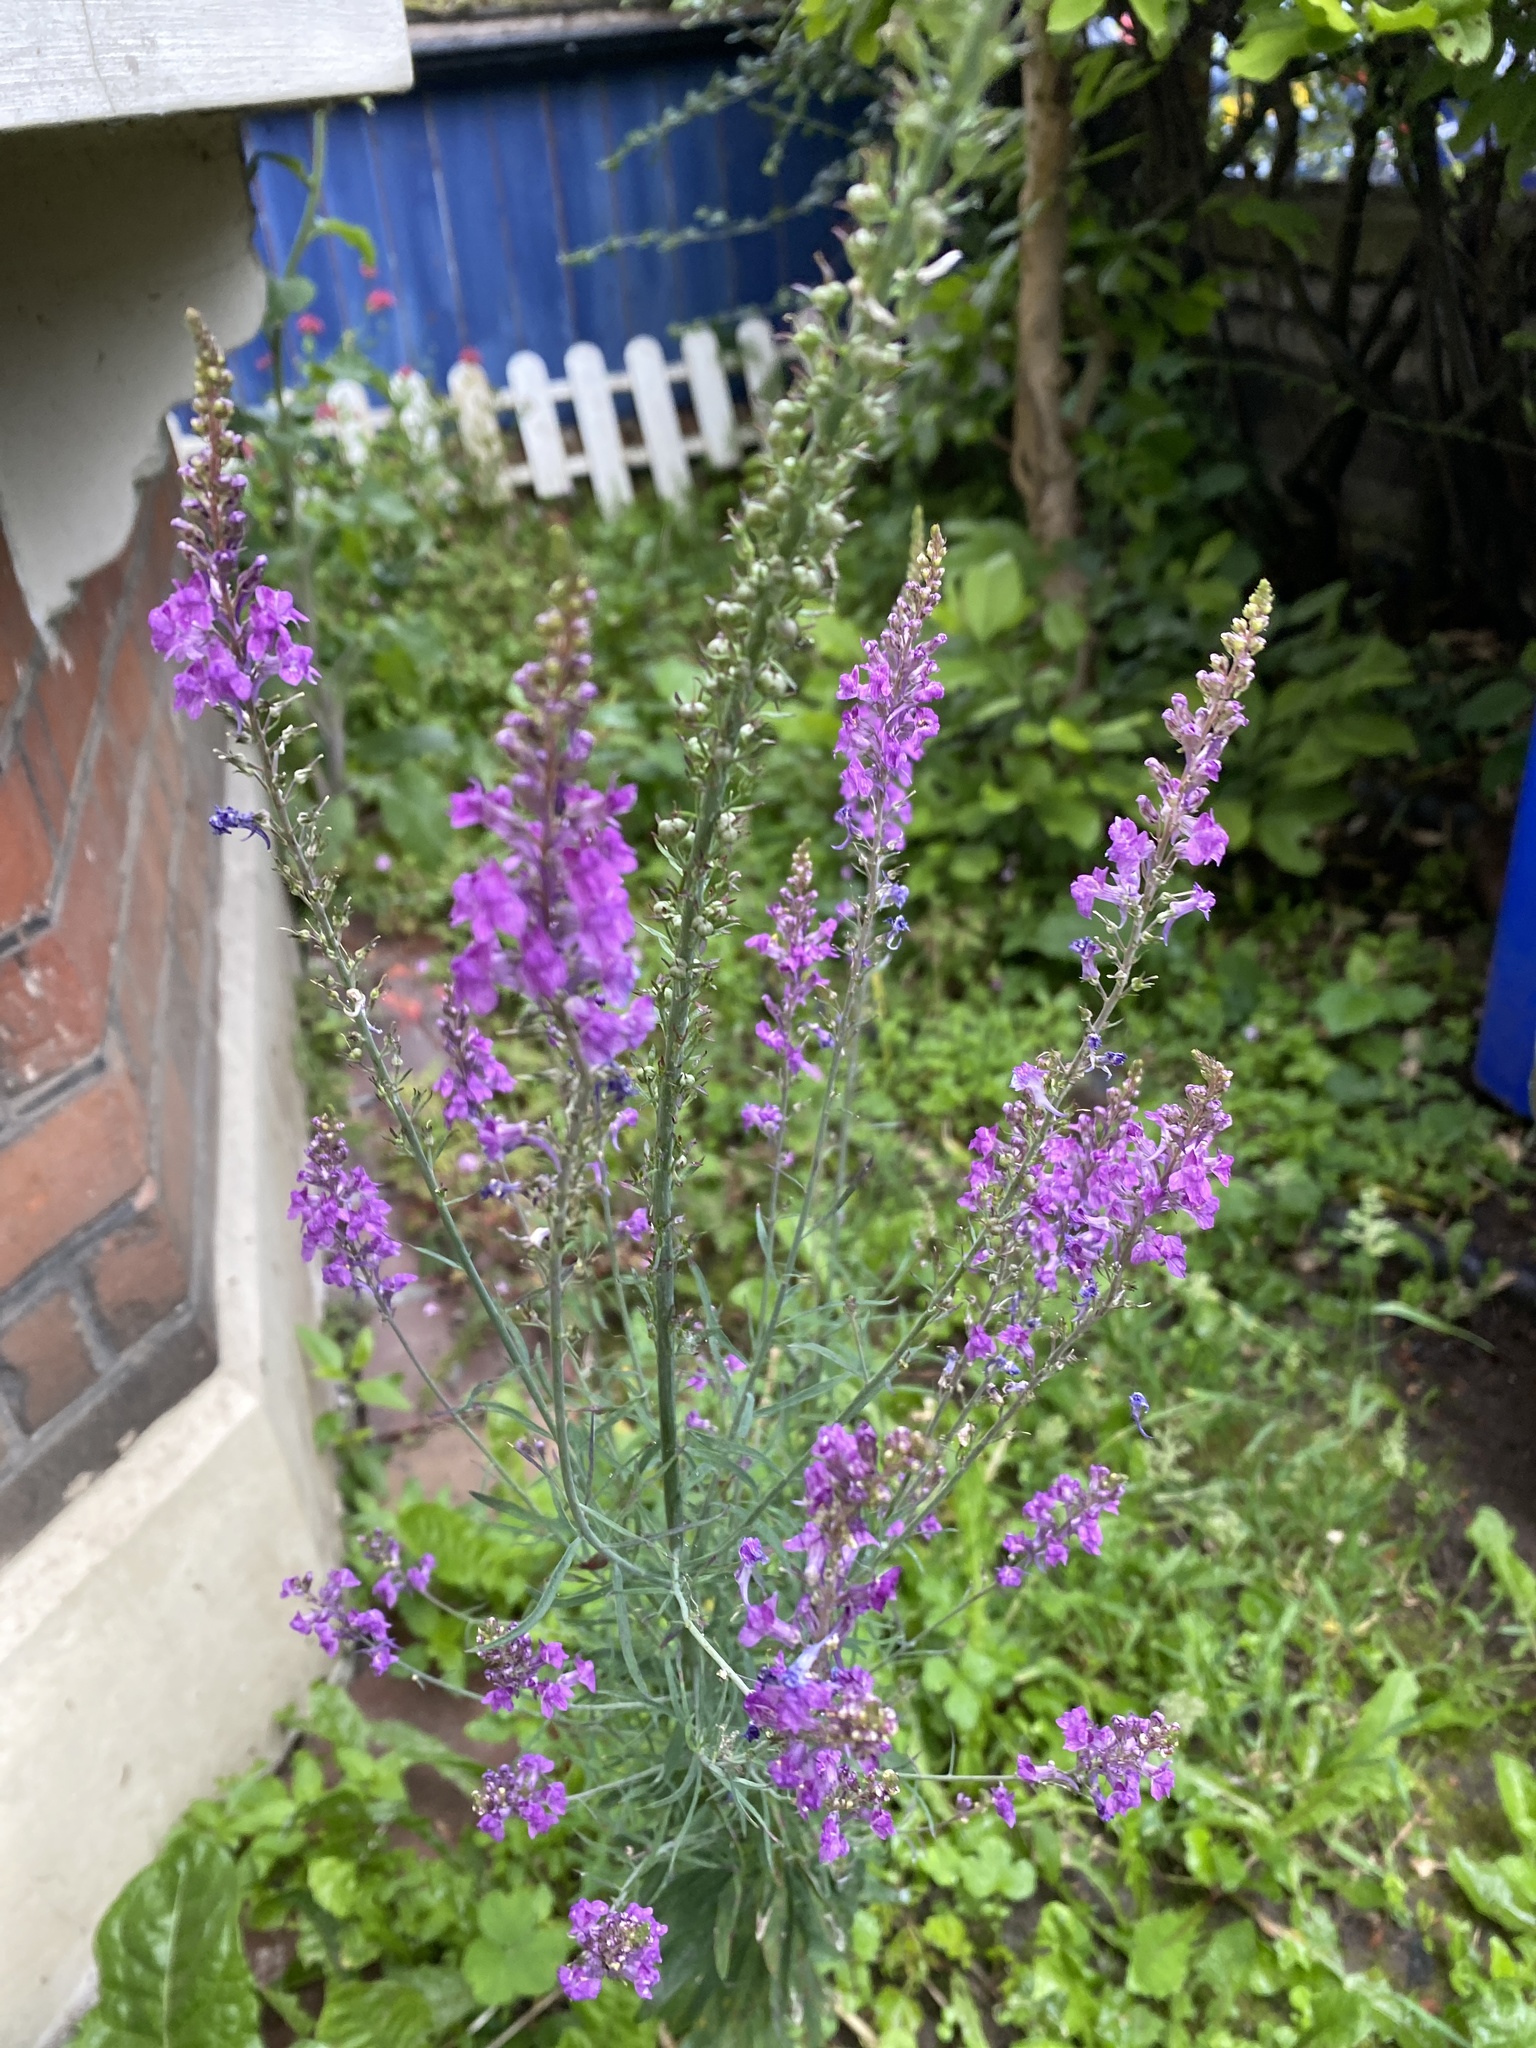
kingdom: Plantae
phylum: Tracheophyta
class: Magnoliopsida
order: Lamiales
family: Plantaginaceae
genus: Linaria
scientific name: Linaria purpurea
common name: Purple toadflax
